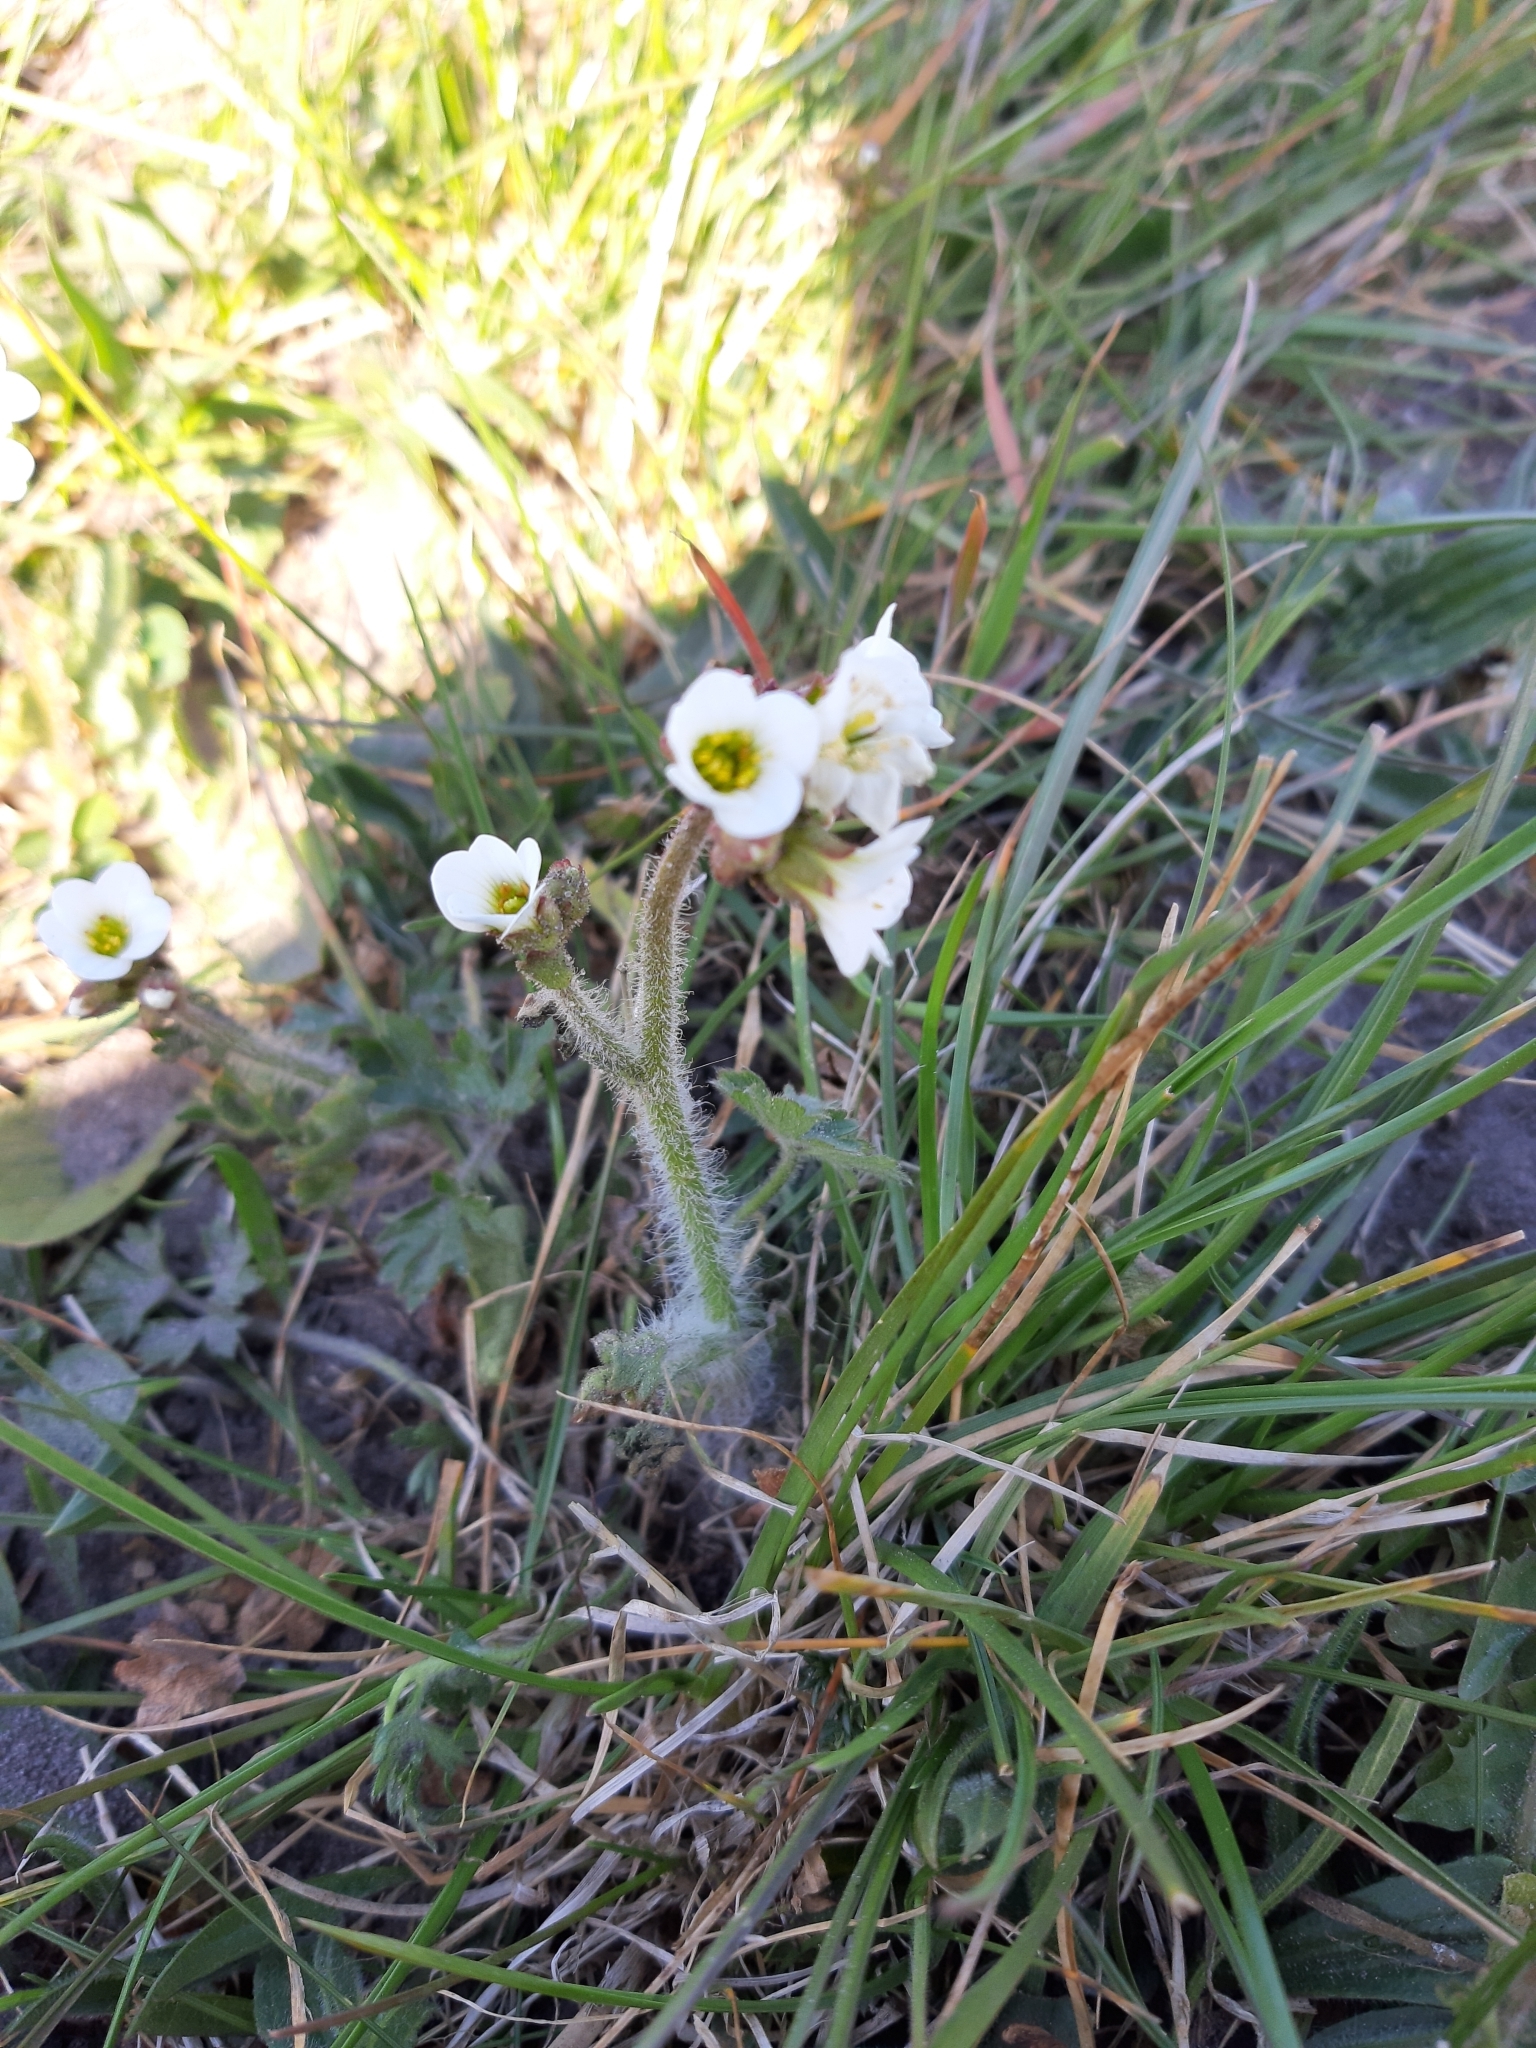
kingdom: Plantae
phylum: Tracheophyta
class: Magnoliopsida
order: Saxifragales
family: Saxifragaceae
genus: Saxifraga
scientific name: Saxifraga granulata
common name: Meadow saxifrage
